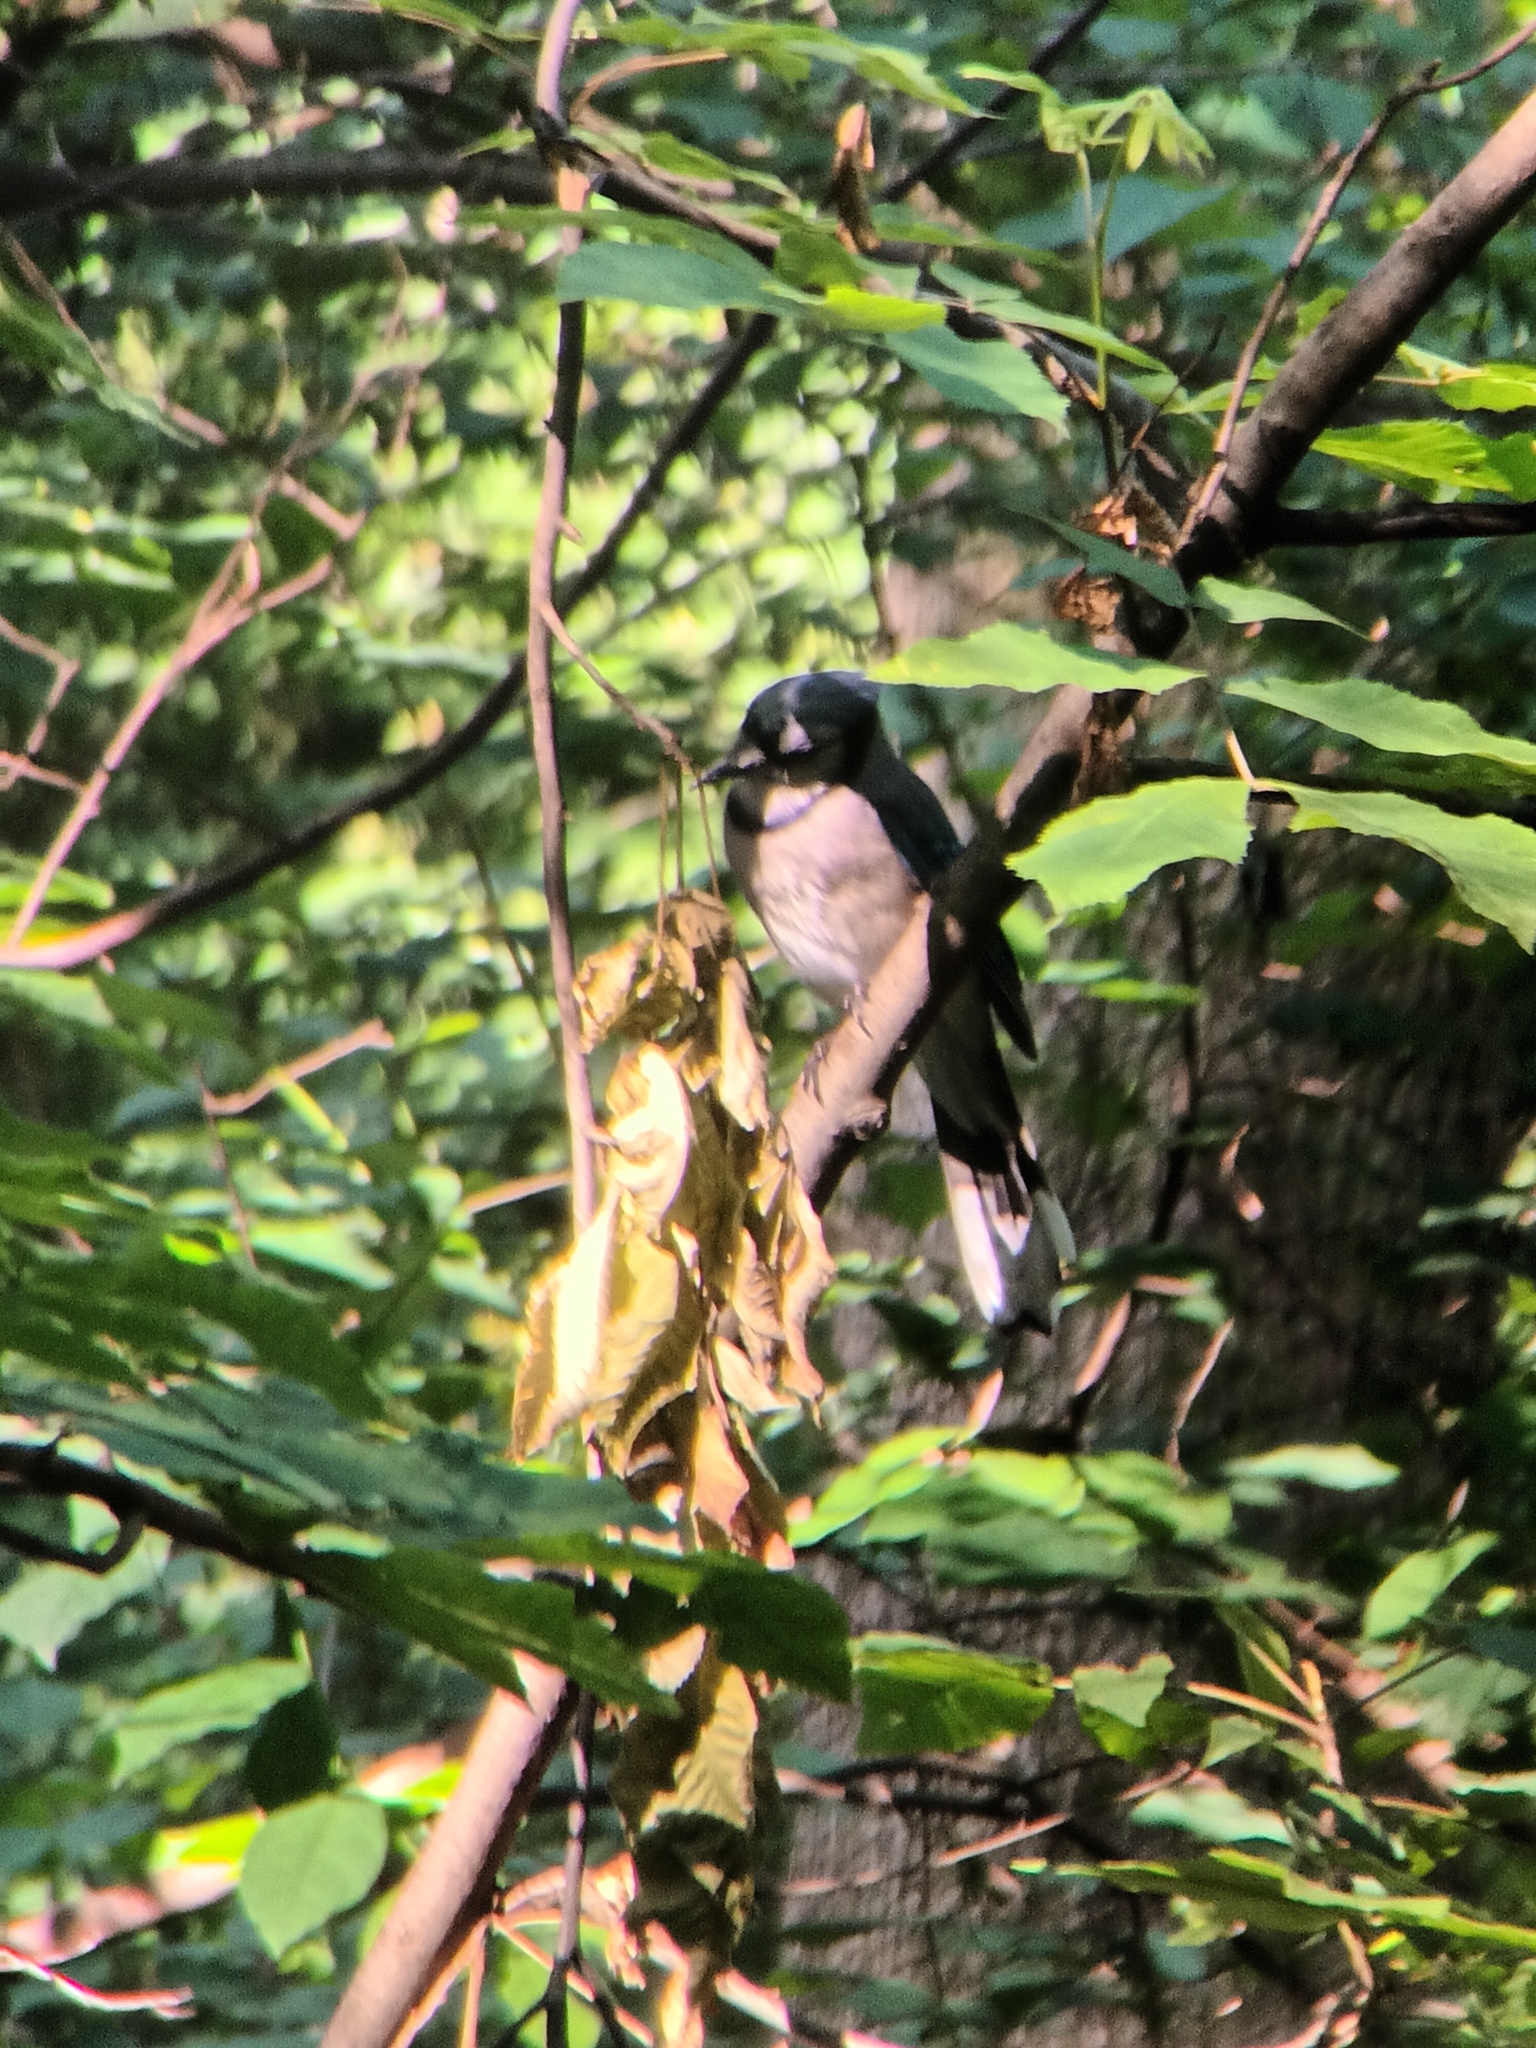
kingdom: Animalia
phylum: Chordata
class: Aves
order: Passeriformes
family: Corvidae
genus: Cyanocitta
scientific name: Cyanocitta cristata
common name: Blue jay
